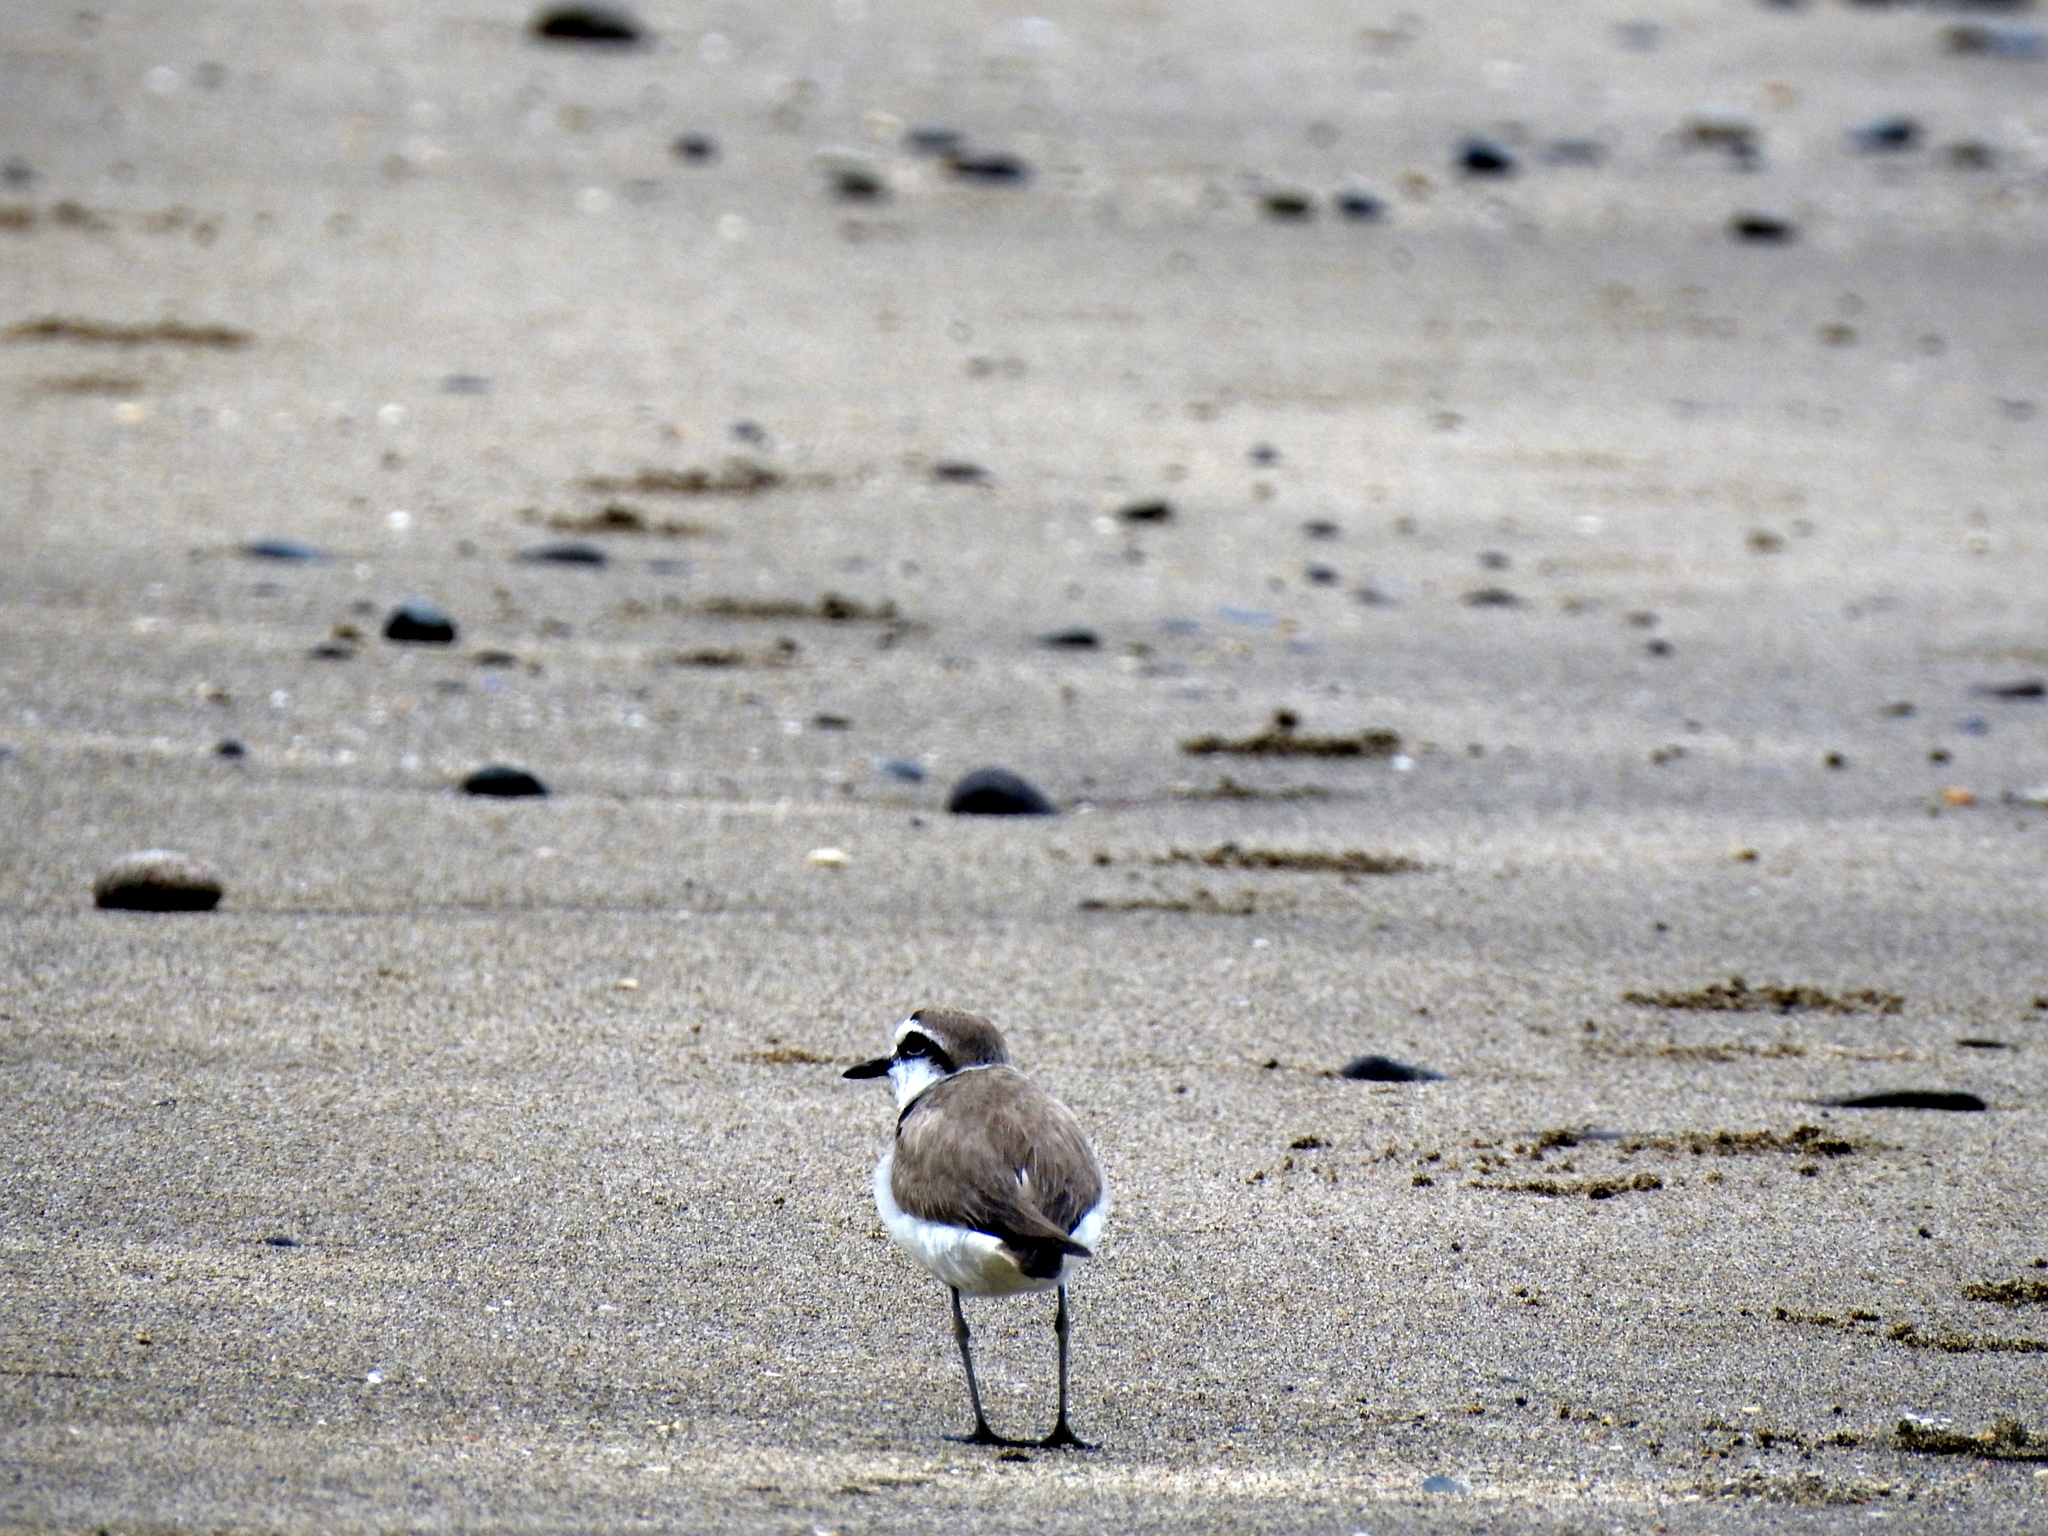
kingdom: Animalia
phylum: Chordata
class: Aves
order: Charadriiformes
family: Charadriidae
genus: Charadrius
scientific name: Charadrius alexandrinus
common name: Kentish plover
